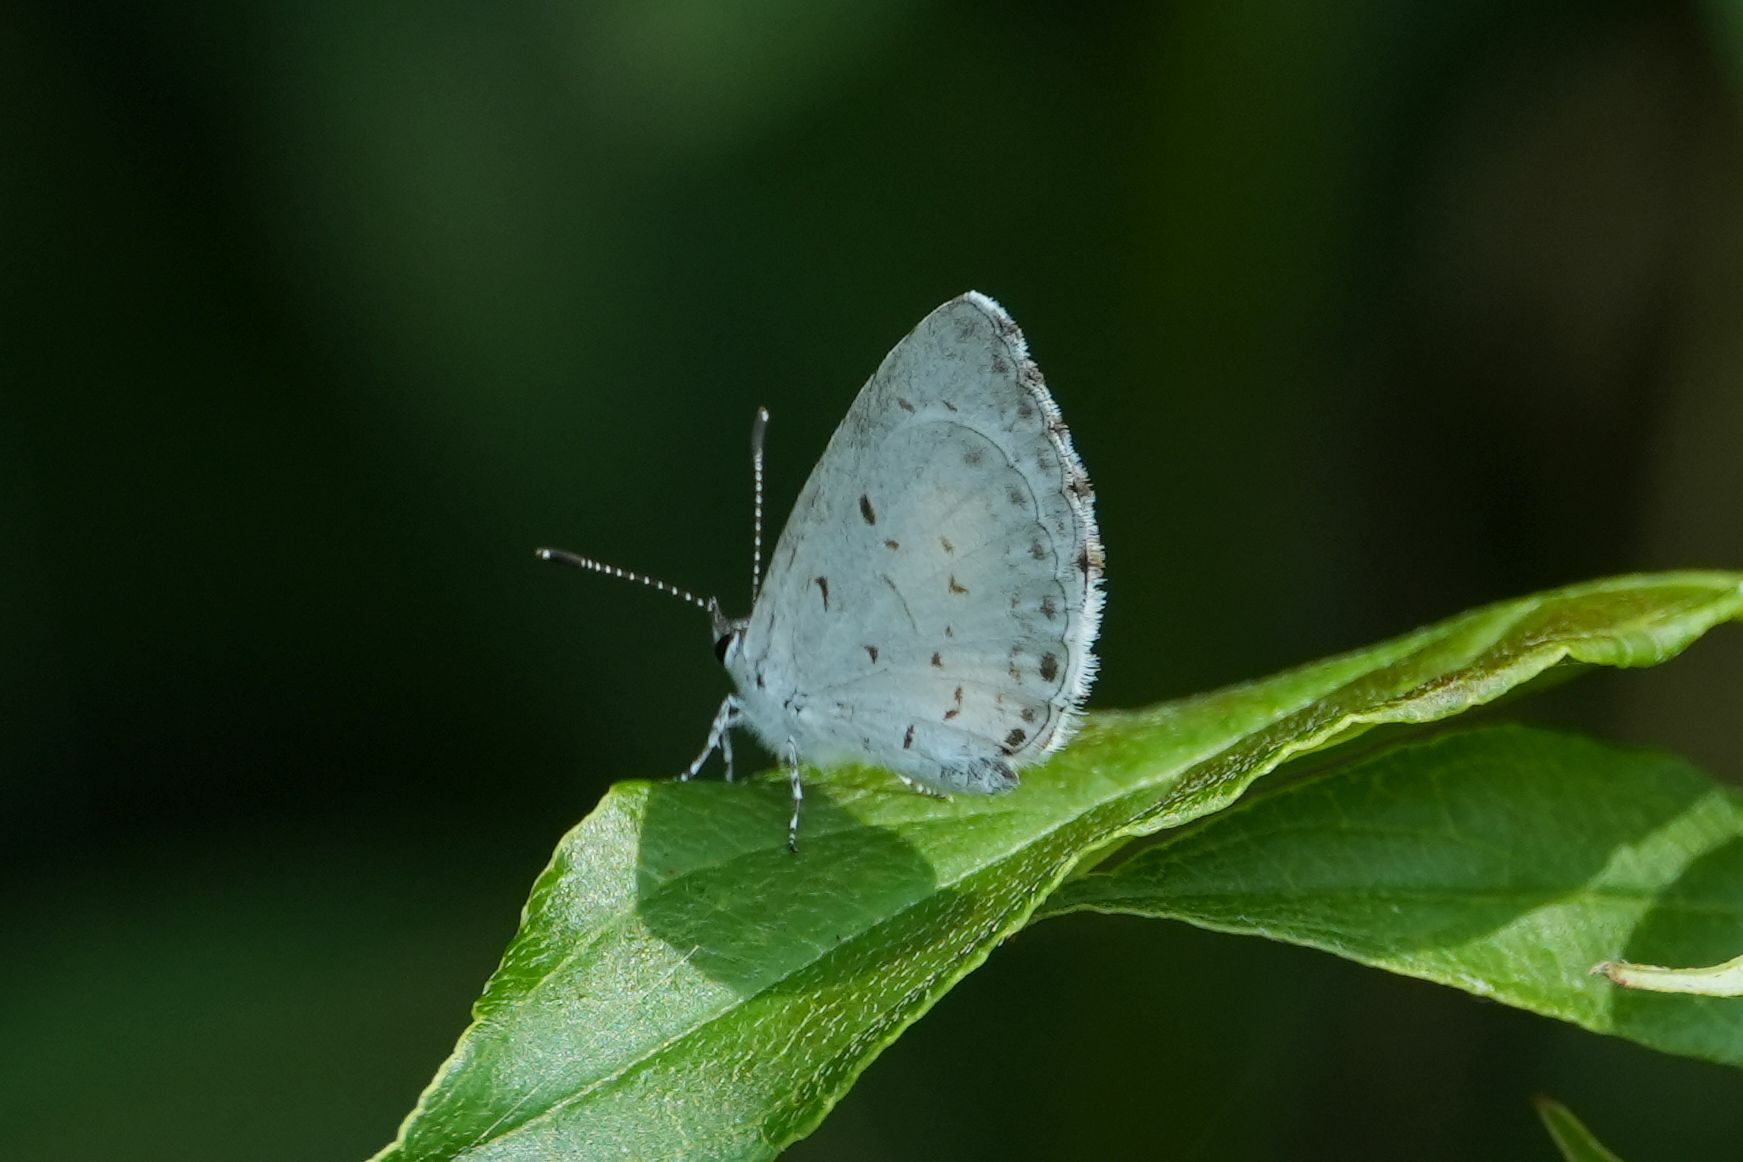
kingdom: Animalia
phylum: Arthropoda
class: Insecta
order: Lepidoptera
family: Lycaenidae
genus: Cyaniris
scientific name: Cyaniris neglecta
